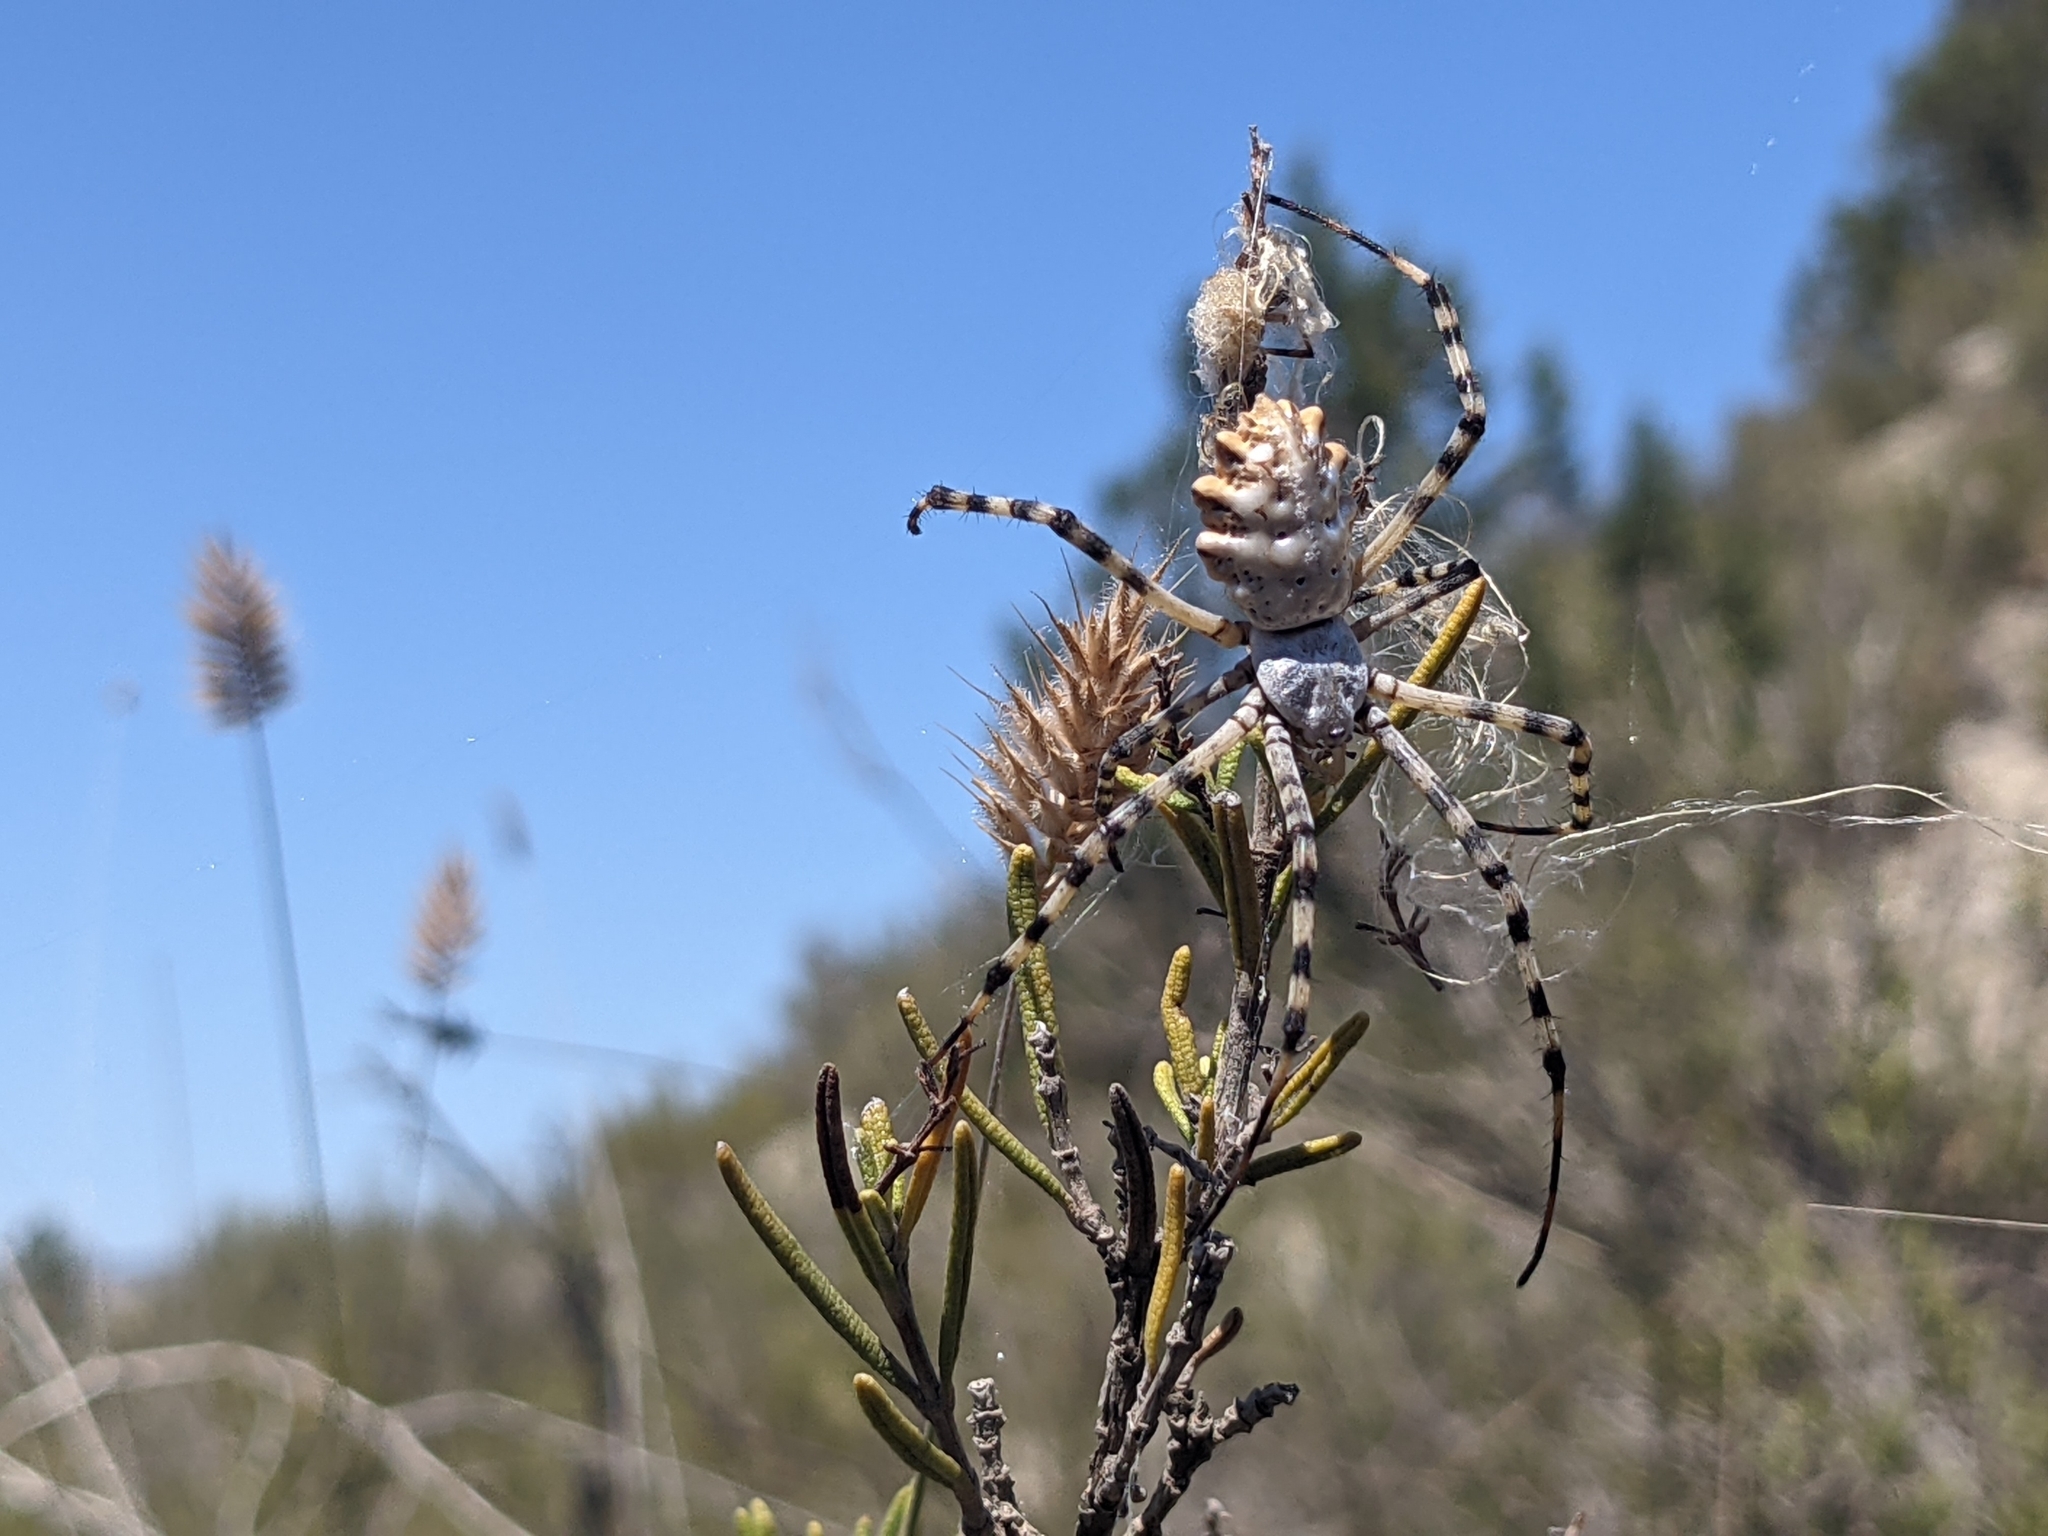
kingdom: Animalia
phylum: Arthropoda
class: Arachnida
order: Araneae
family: Araneidae
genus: Argiope
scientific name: Argiope lobata
